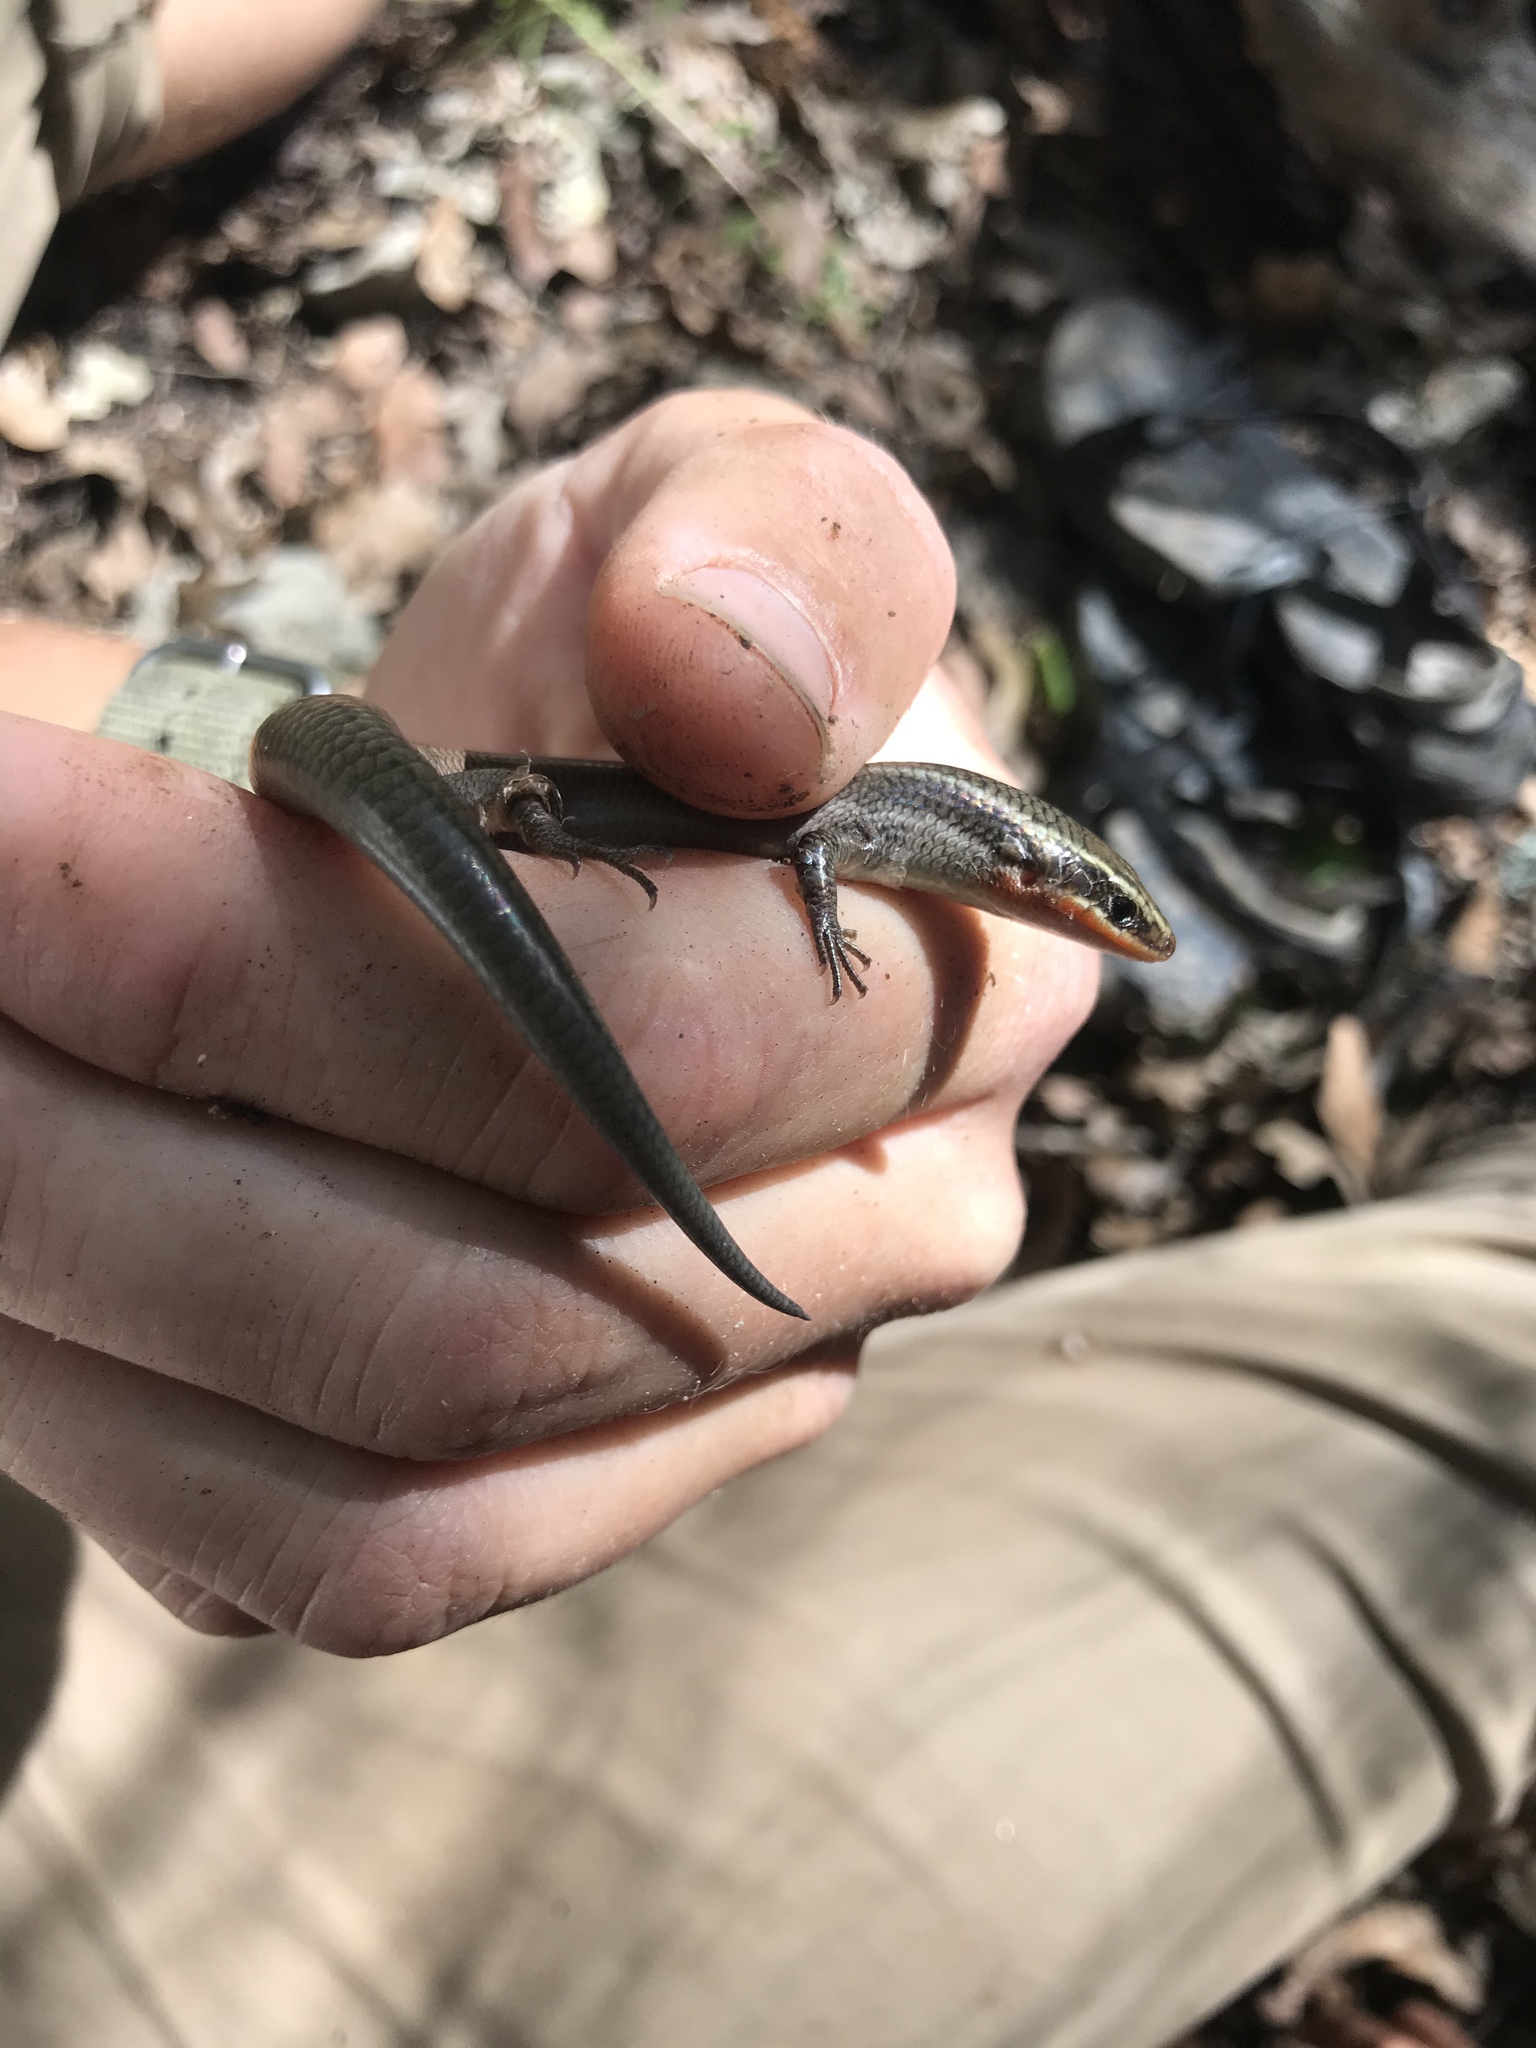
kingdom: Animalia
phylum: Chordata
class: Squamata
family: Scincidae
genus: Plestiodon
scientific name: Plestiodon tetragrammus
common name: Four-lined skink
